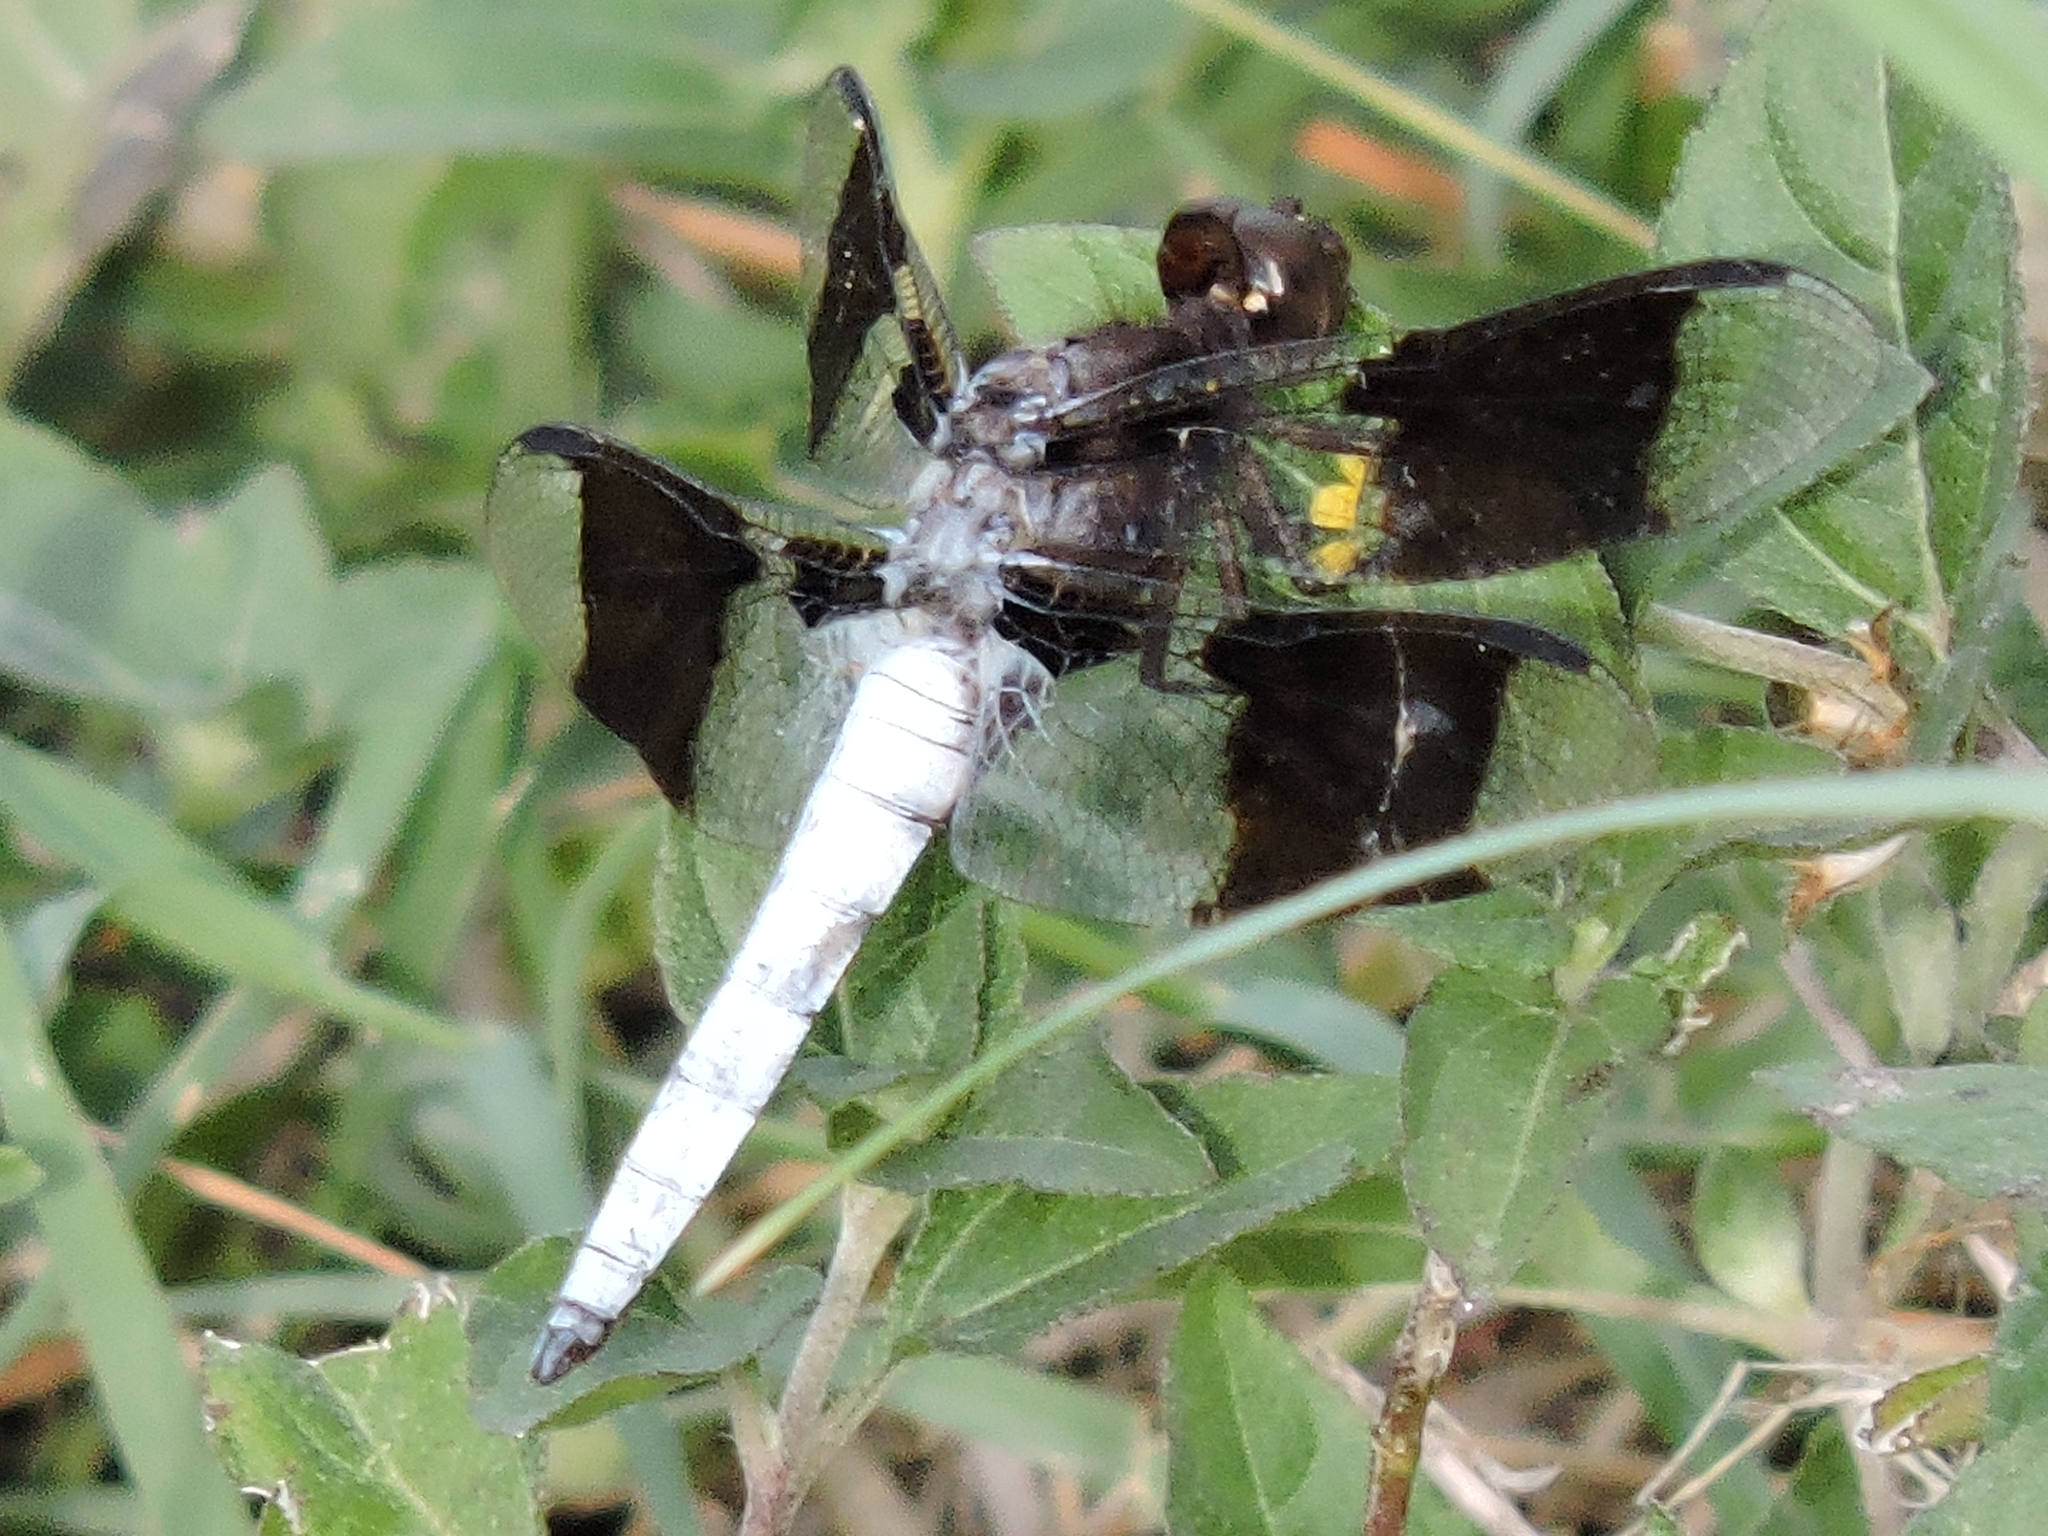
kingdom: Animalia
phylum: Arthropoda
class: Insecta
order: Odonata
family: Libellulidae
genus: Plathemis
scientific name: Plathemis lydia
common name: Common whitetail
